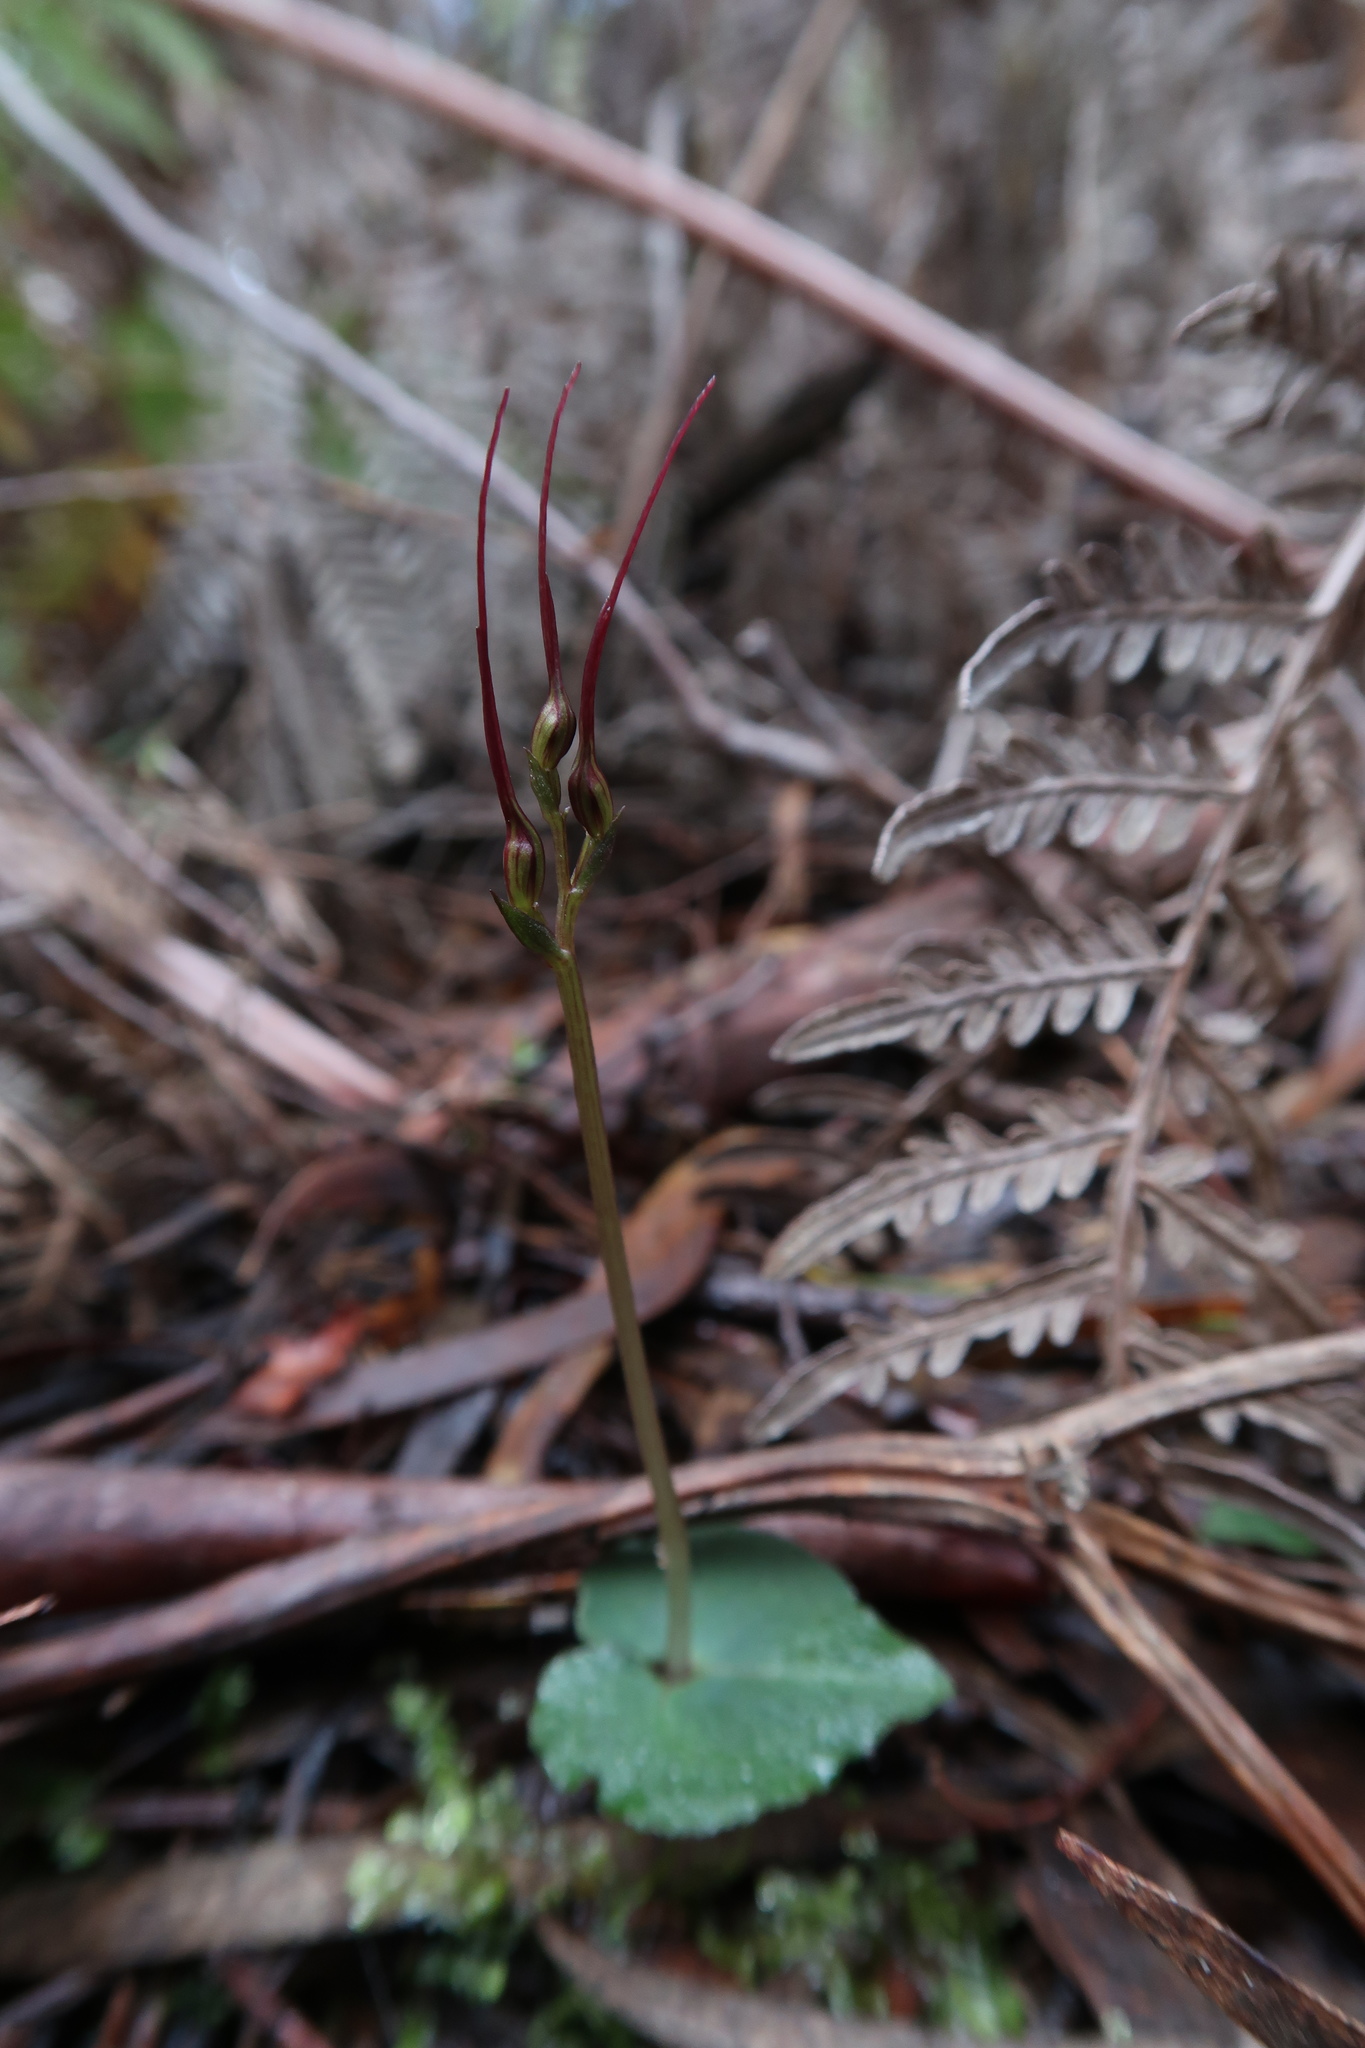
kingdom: Plantae
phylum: Tracheophyta
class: Liliopsida
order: Asparagales
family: Orchidaceae
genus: Acianthus
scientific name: Acianthus caudatus
